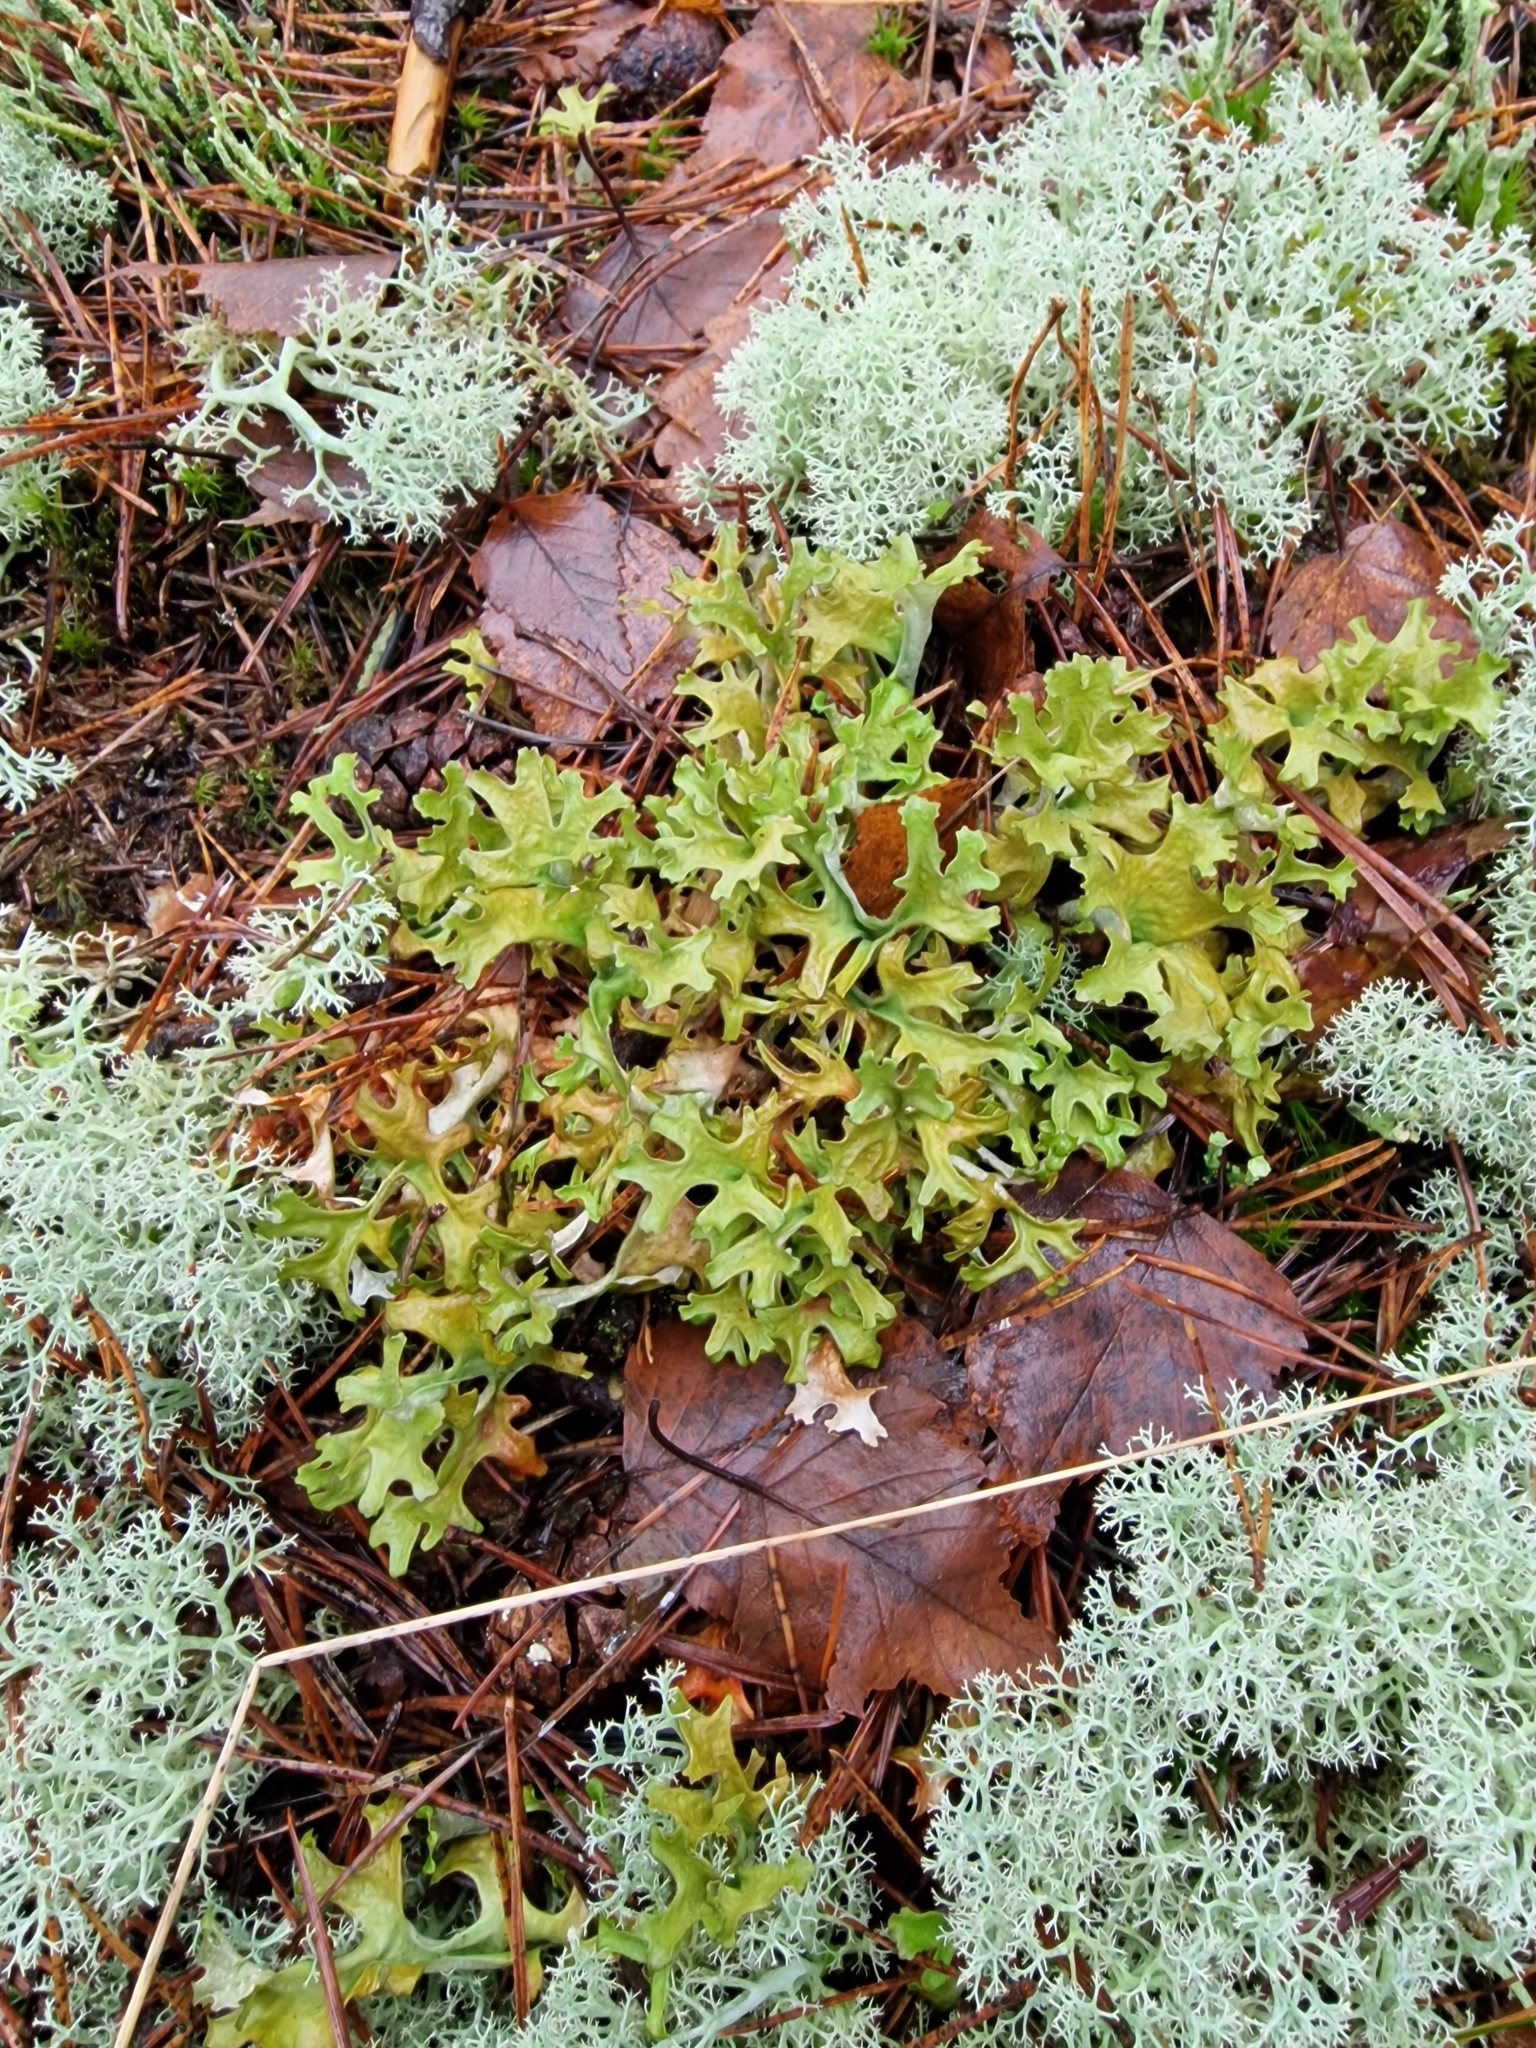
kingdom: Fungi
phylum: Ascomycota
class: Lecanoromycetes
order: Lecanorales
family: Parmeliaceae
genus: Cetraria
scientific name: Cetraria islandica
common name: Iceland lichen
